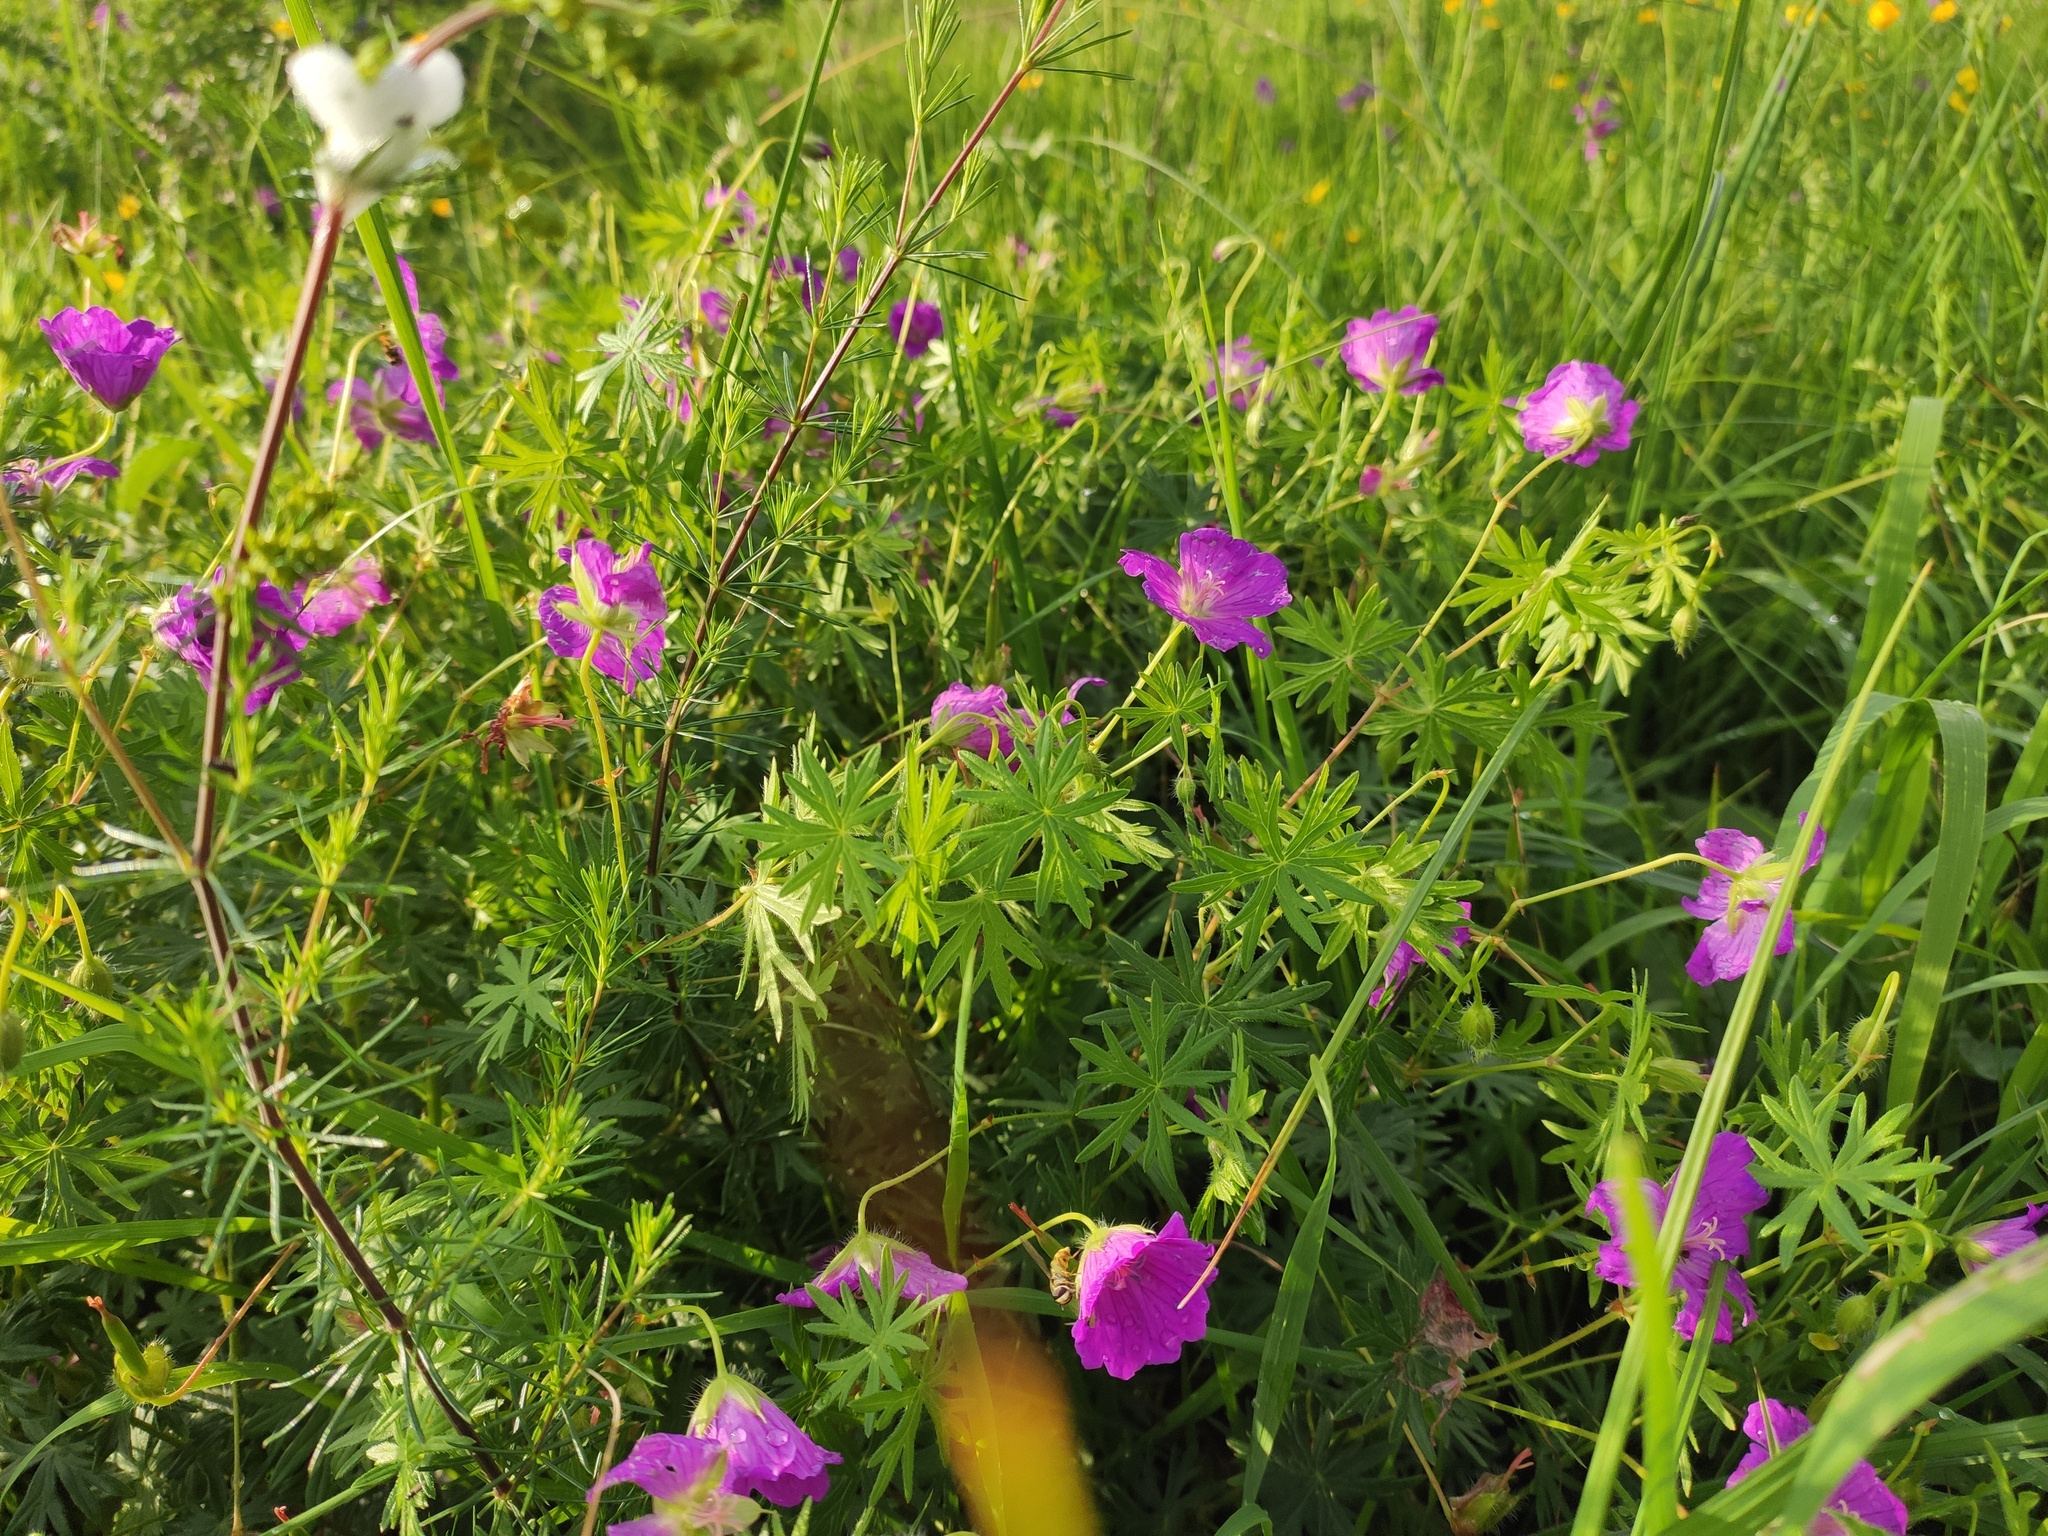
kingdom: Plantae
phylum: Tracheophyta
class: Magnoliopsida
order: Geraniales
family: Geraniaceae
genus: Geranium
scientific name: Geranium sanguineum
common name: Bloody crane's-bill
